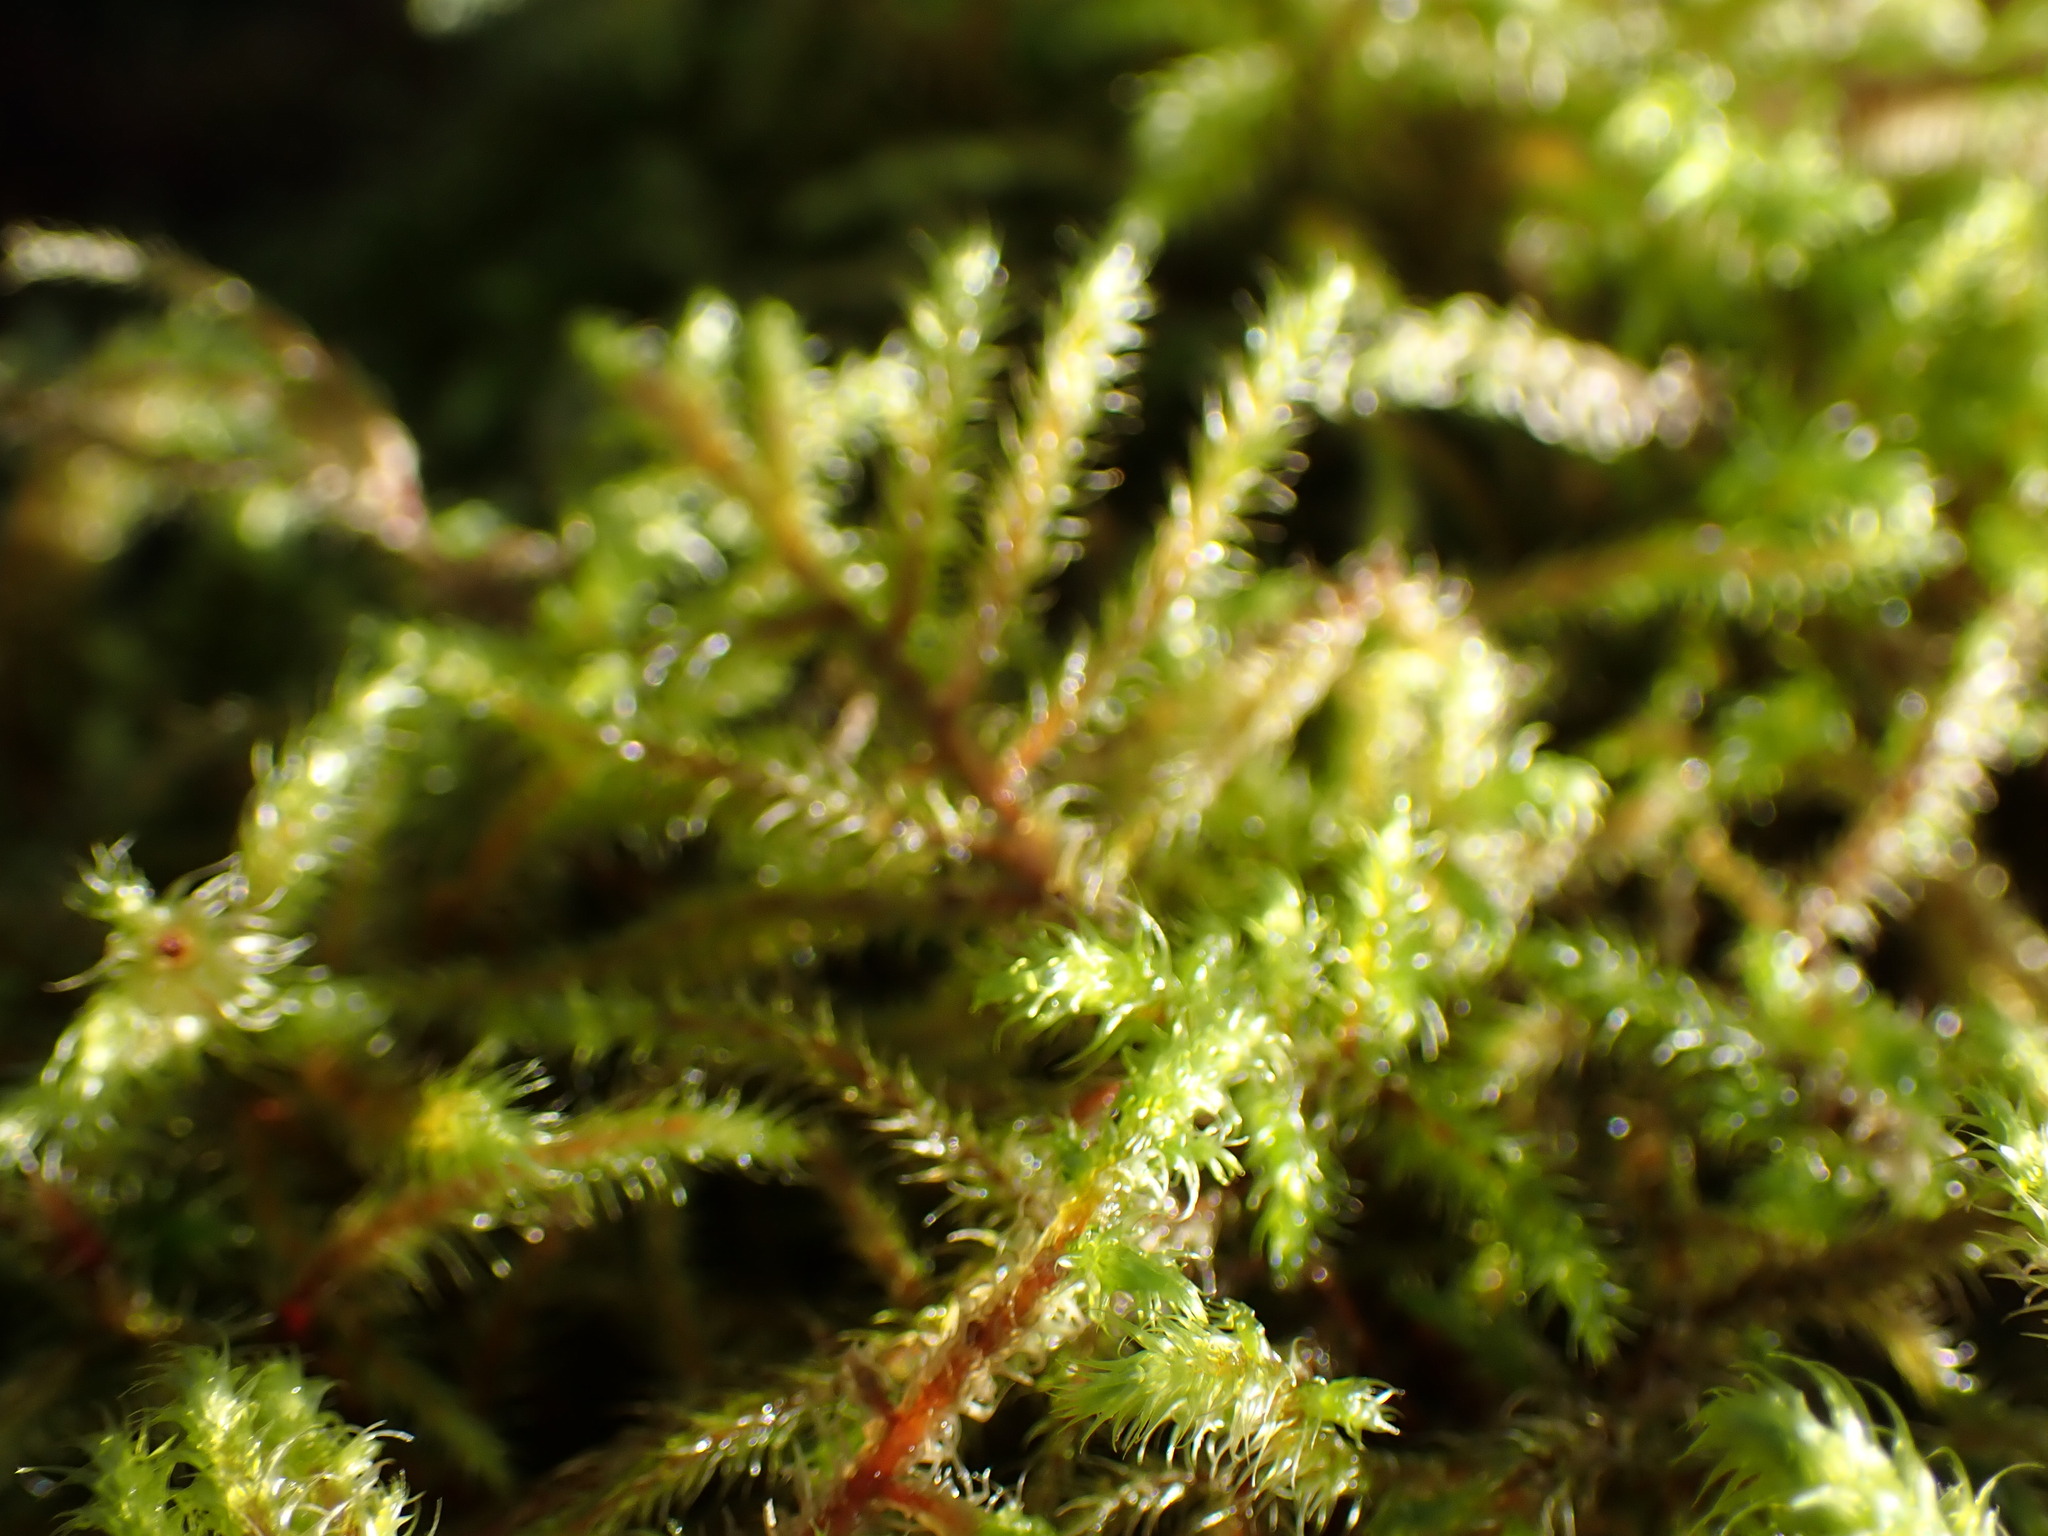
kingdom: Plantae
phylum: Bryophyta
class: Bryopsida
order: Hypnales
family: Hylocomiaceae
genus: Rhytidiadelphus
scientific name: Rhytidiadelphus loreus
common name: Lanky moss
